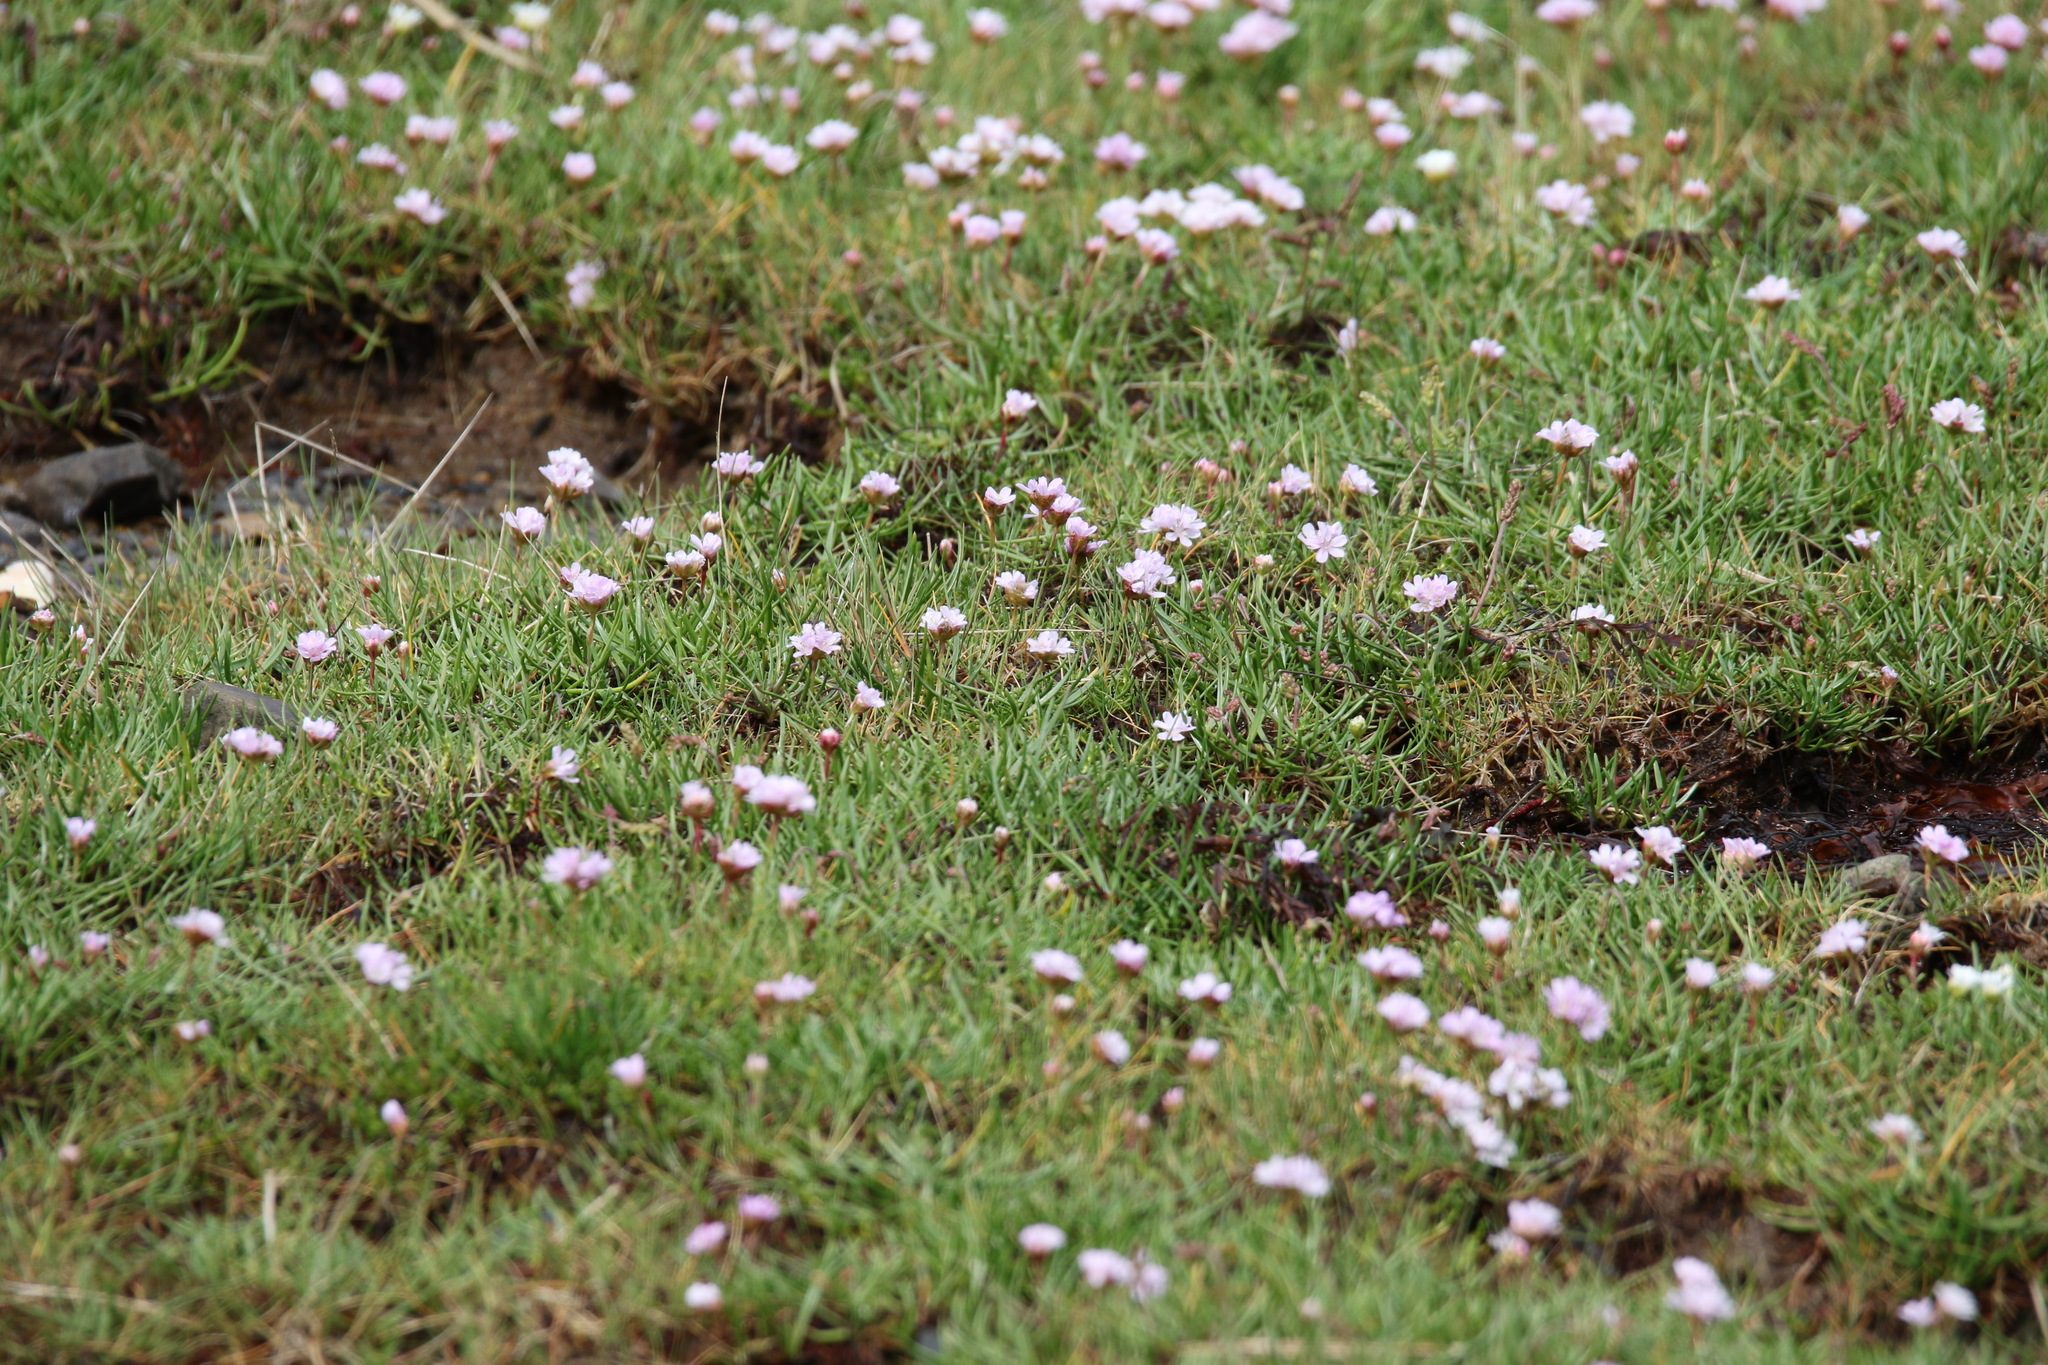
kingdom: Plantae
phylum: Tracheophyta
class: Magnoliopsida
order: Caryophyllales
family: Plumbaginaceae
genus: Armeria
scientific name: Armeria maritima
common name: Thrift
